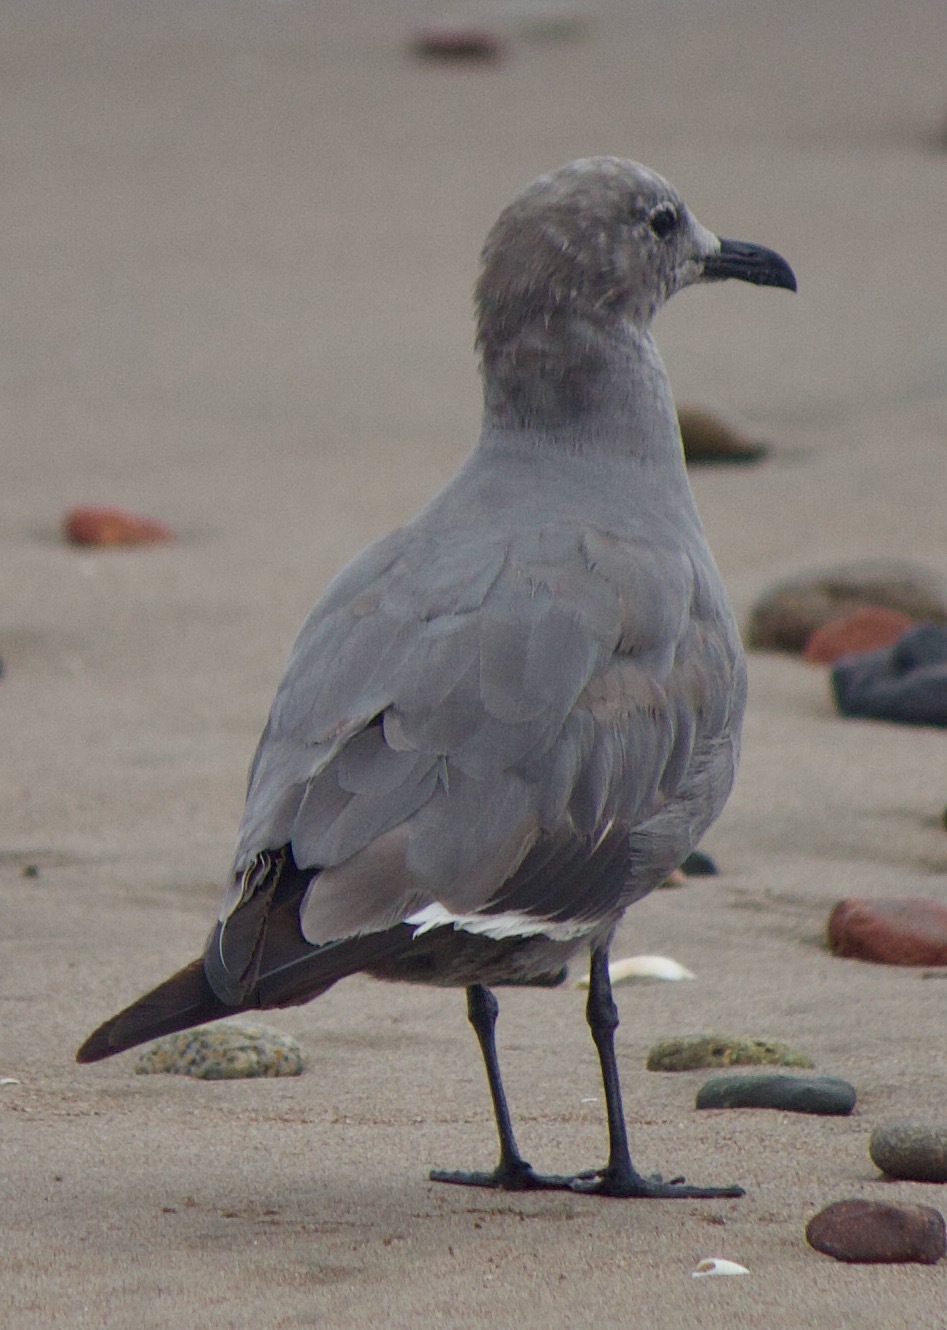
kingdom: Animalia
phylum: Chordata
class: Aves
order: Charadriiformes
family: Laridae
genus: Leucophaeus
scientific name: Leucophaeus modestus
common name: Gray gull
